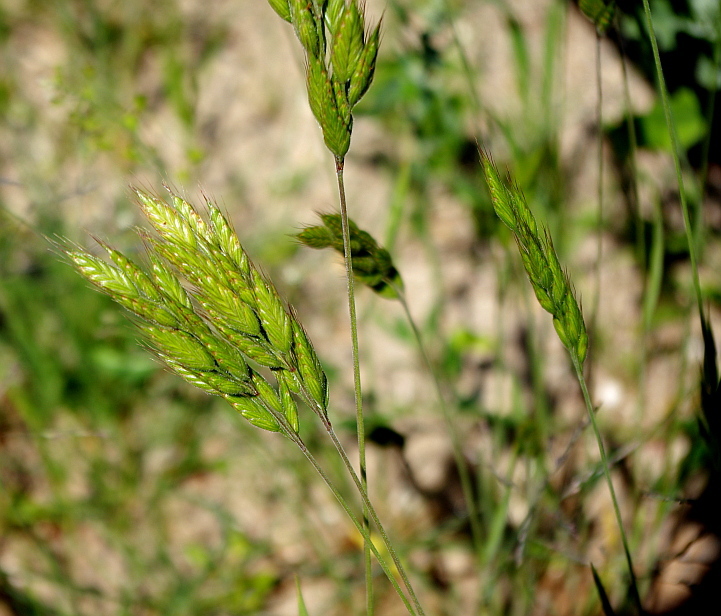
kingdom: Plantae
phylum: Tracheophyta
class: Liliopsida
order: Poales
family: Poaceae
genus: Bromus
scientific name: Bromus hordeaceus
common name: Soft brome
